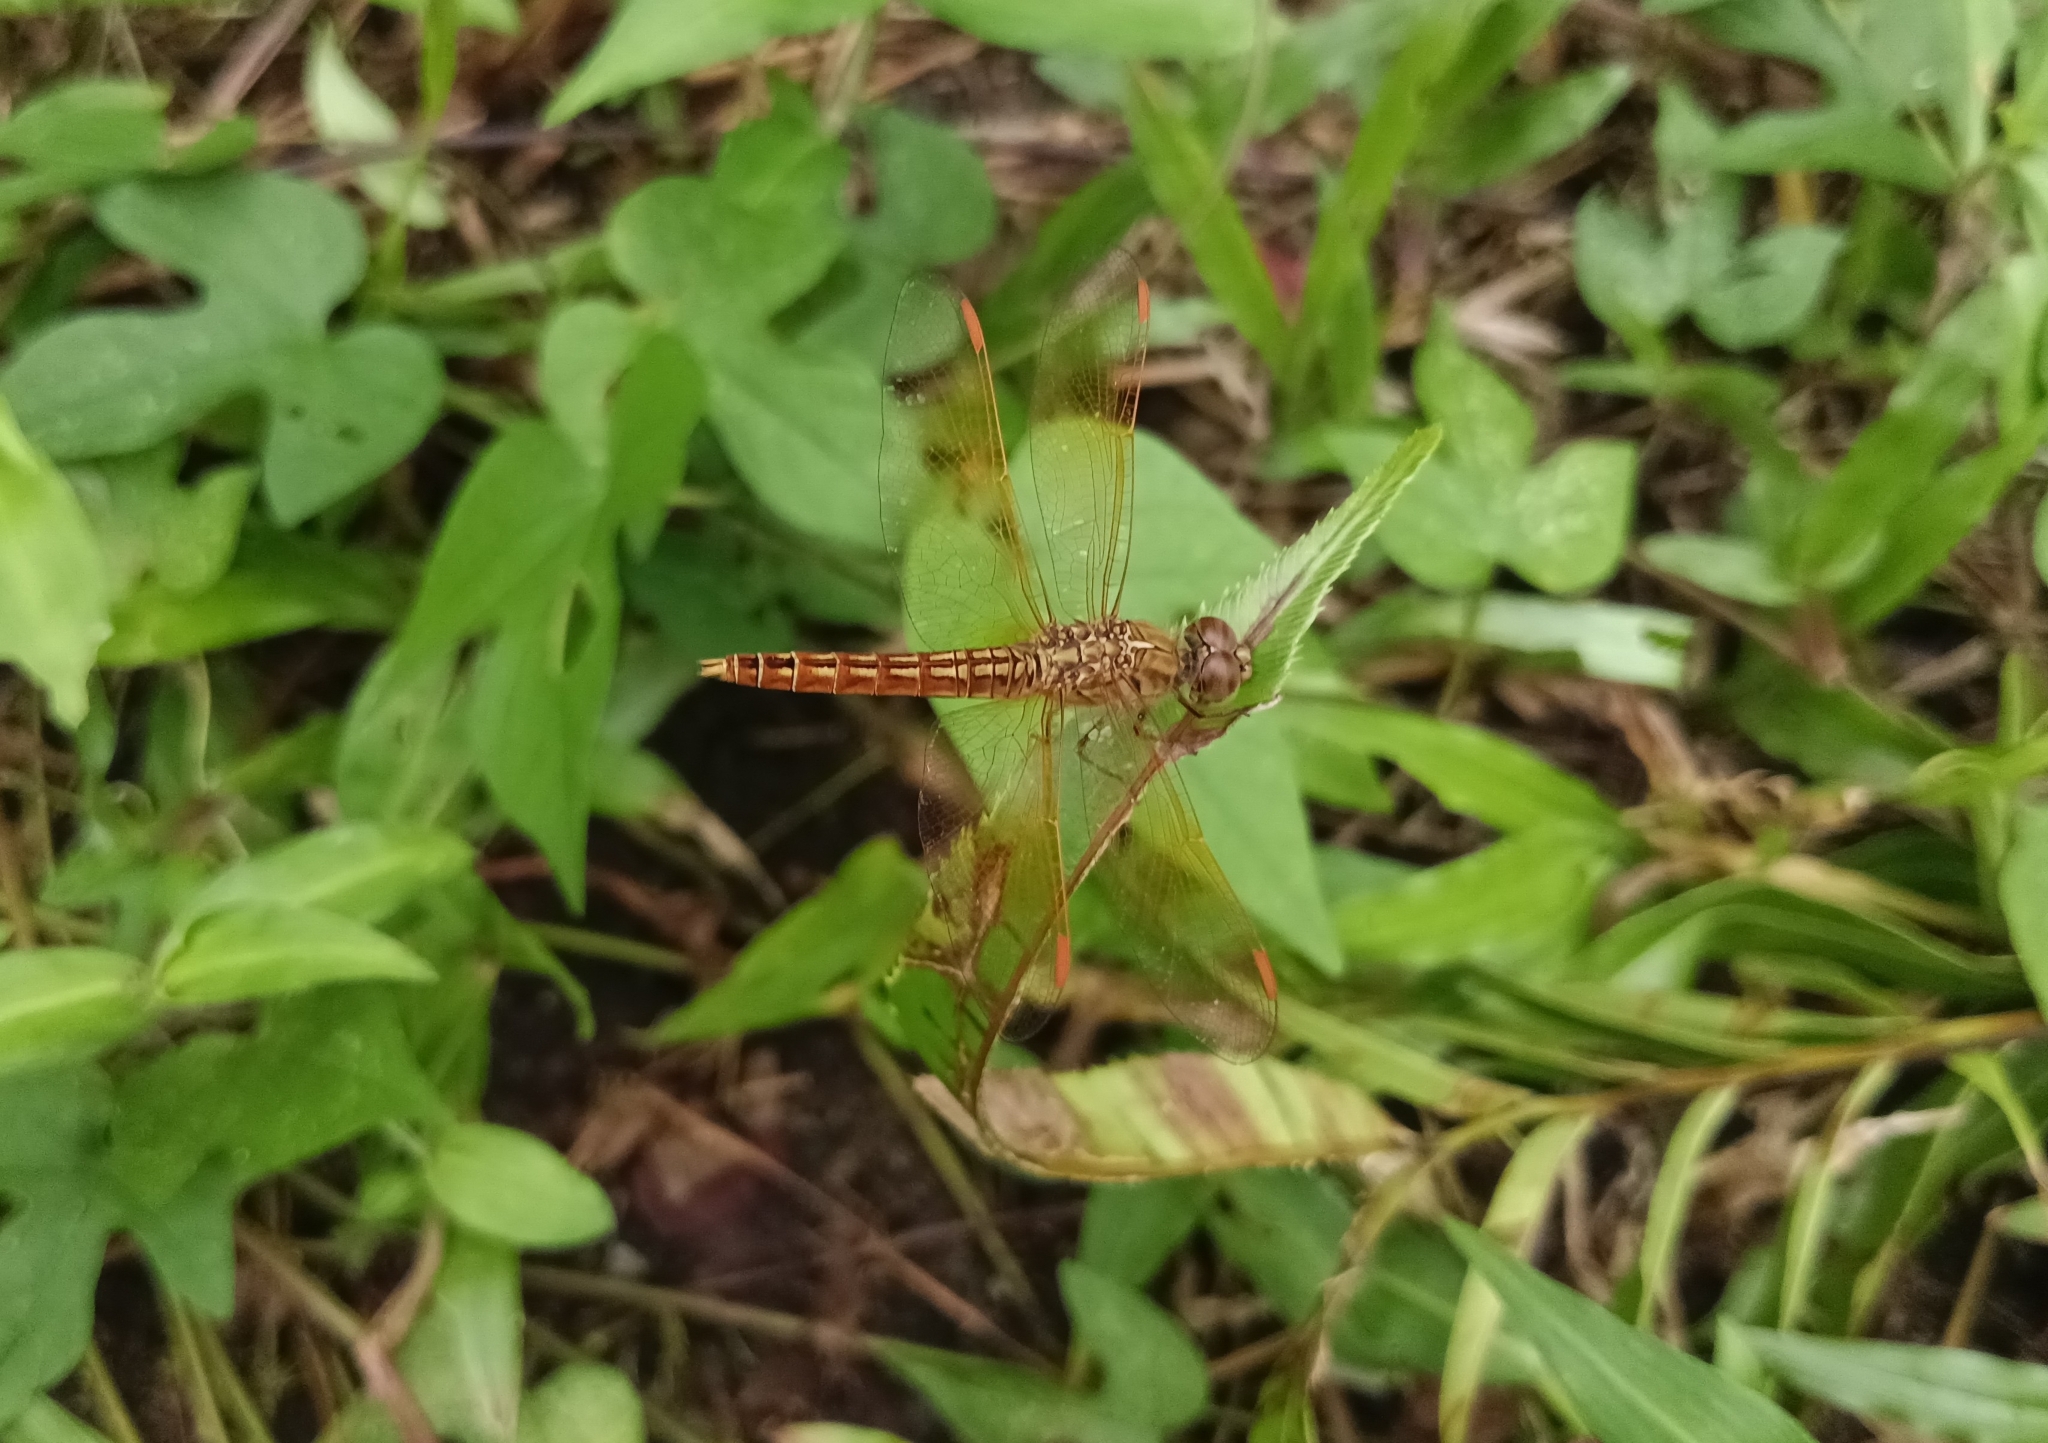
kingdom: Animalia
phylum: Arthropoda
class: Insecta
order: Odonata
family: Libellulidae
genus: Brachythemis
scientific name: Brachythemis contaminata
